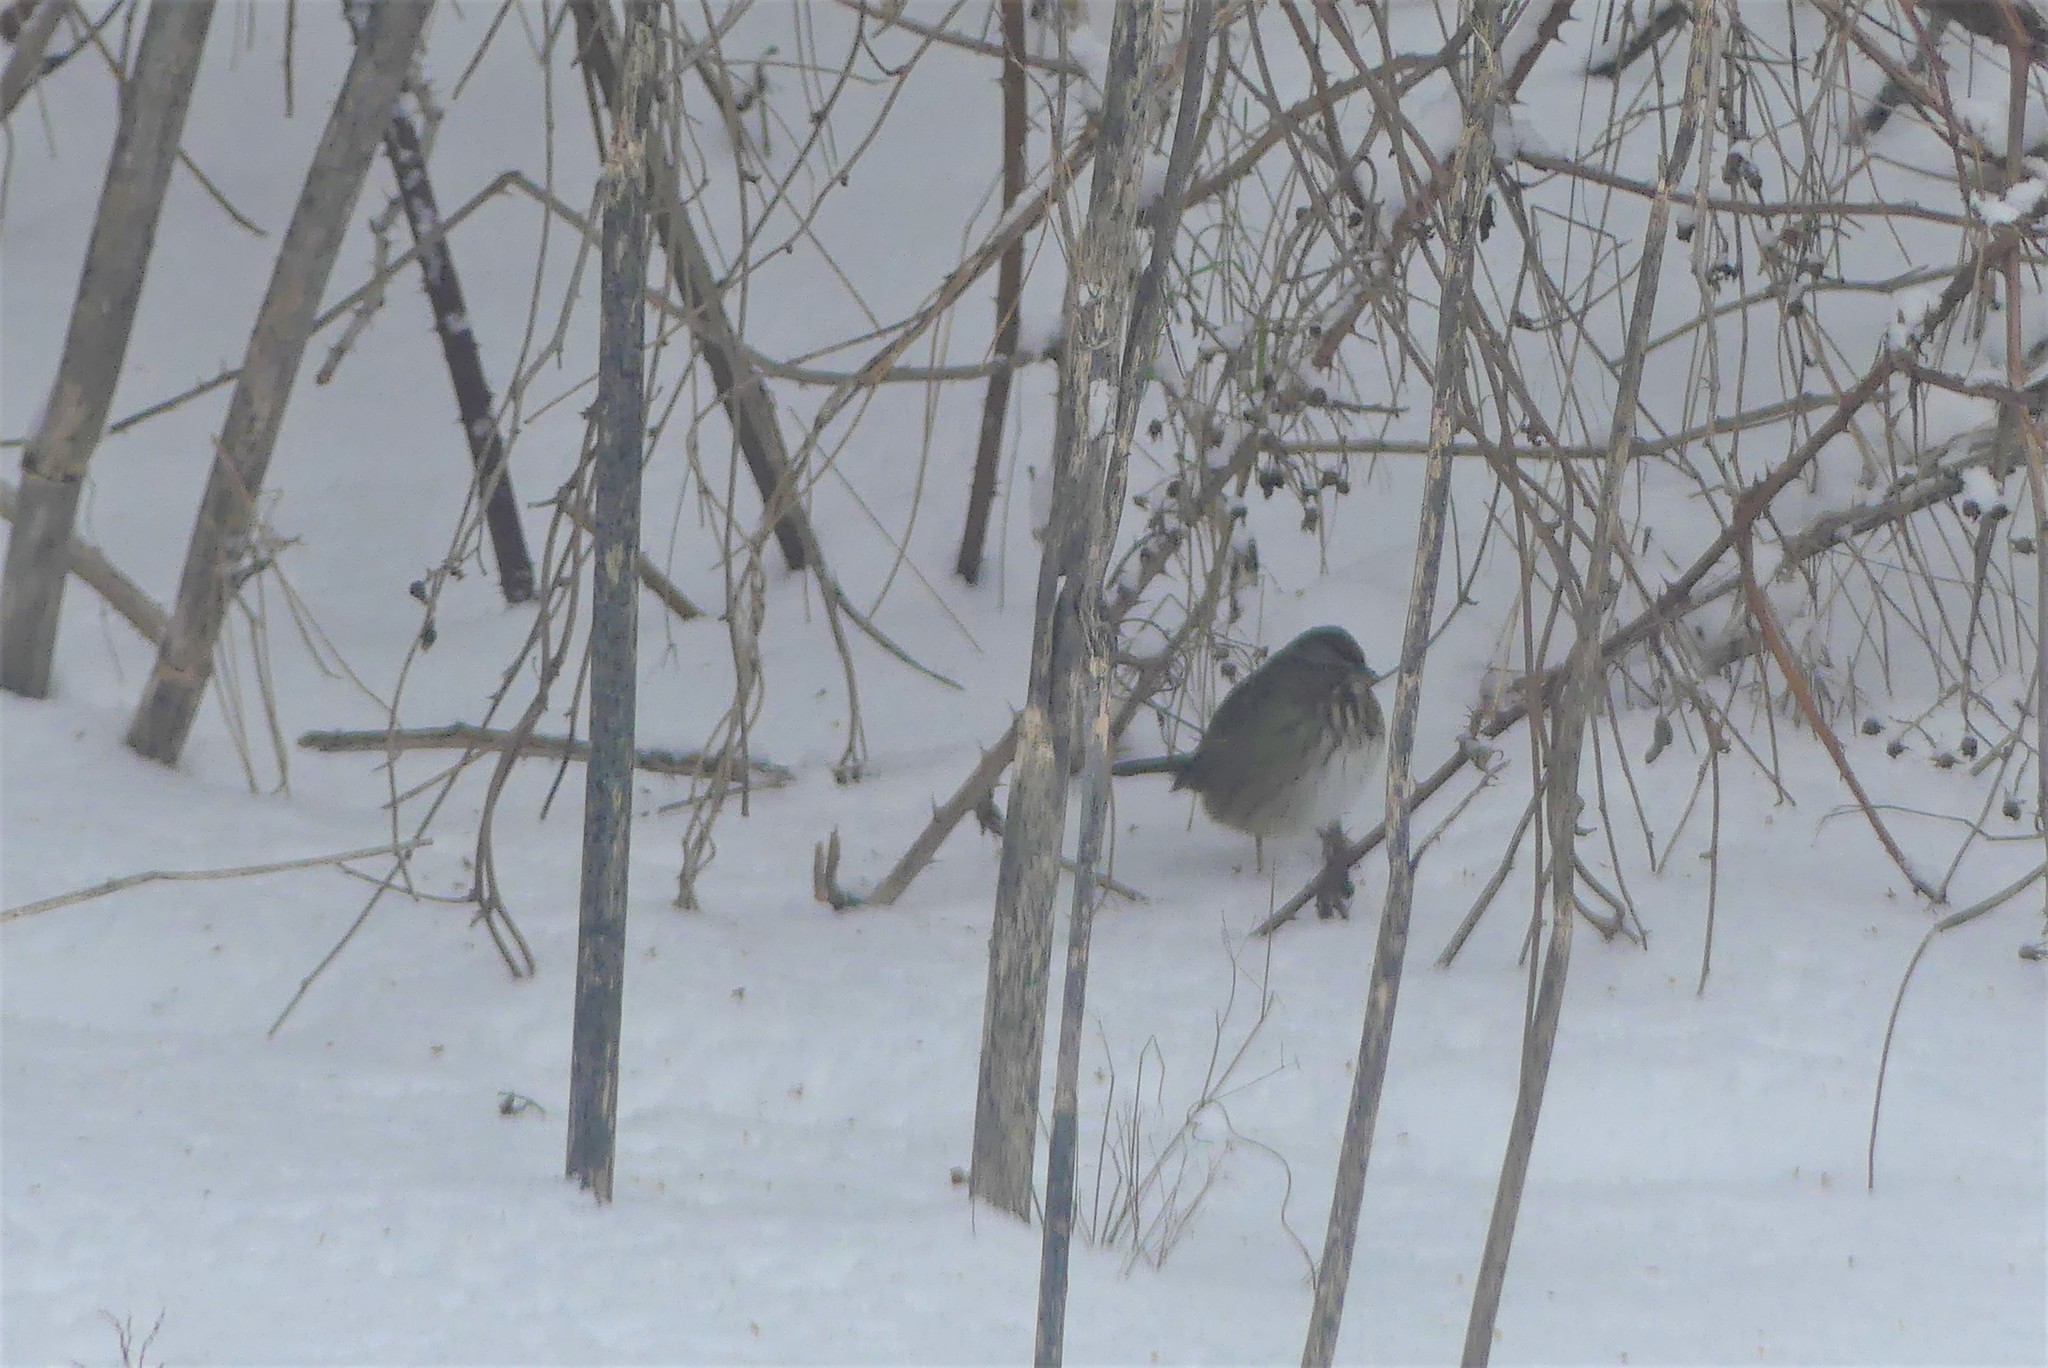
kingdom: Animalia
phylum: Chordata
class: Aves
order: Passeriformes
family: Passerellidae
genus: Melospiza
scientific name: Melospiza melodia
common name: Song sparrow
